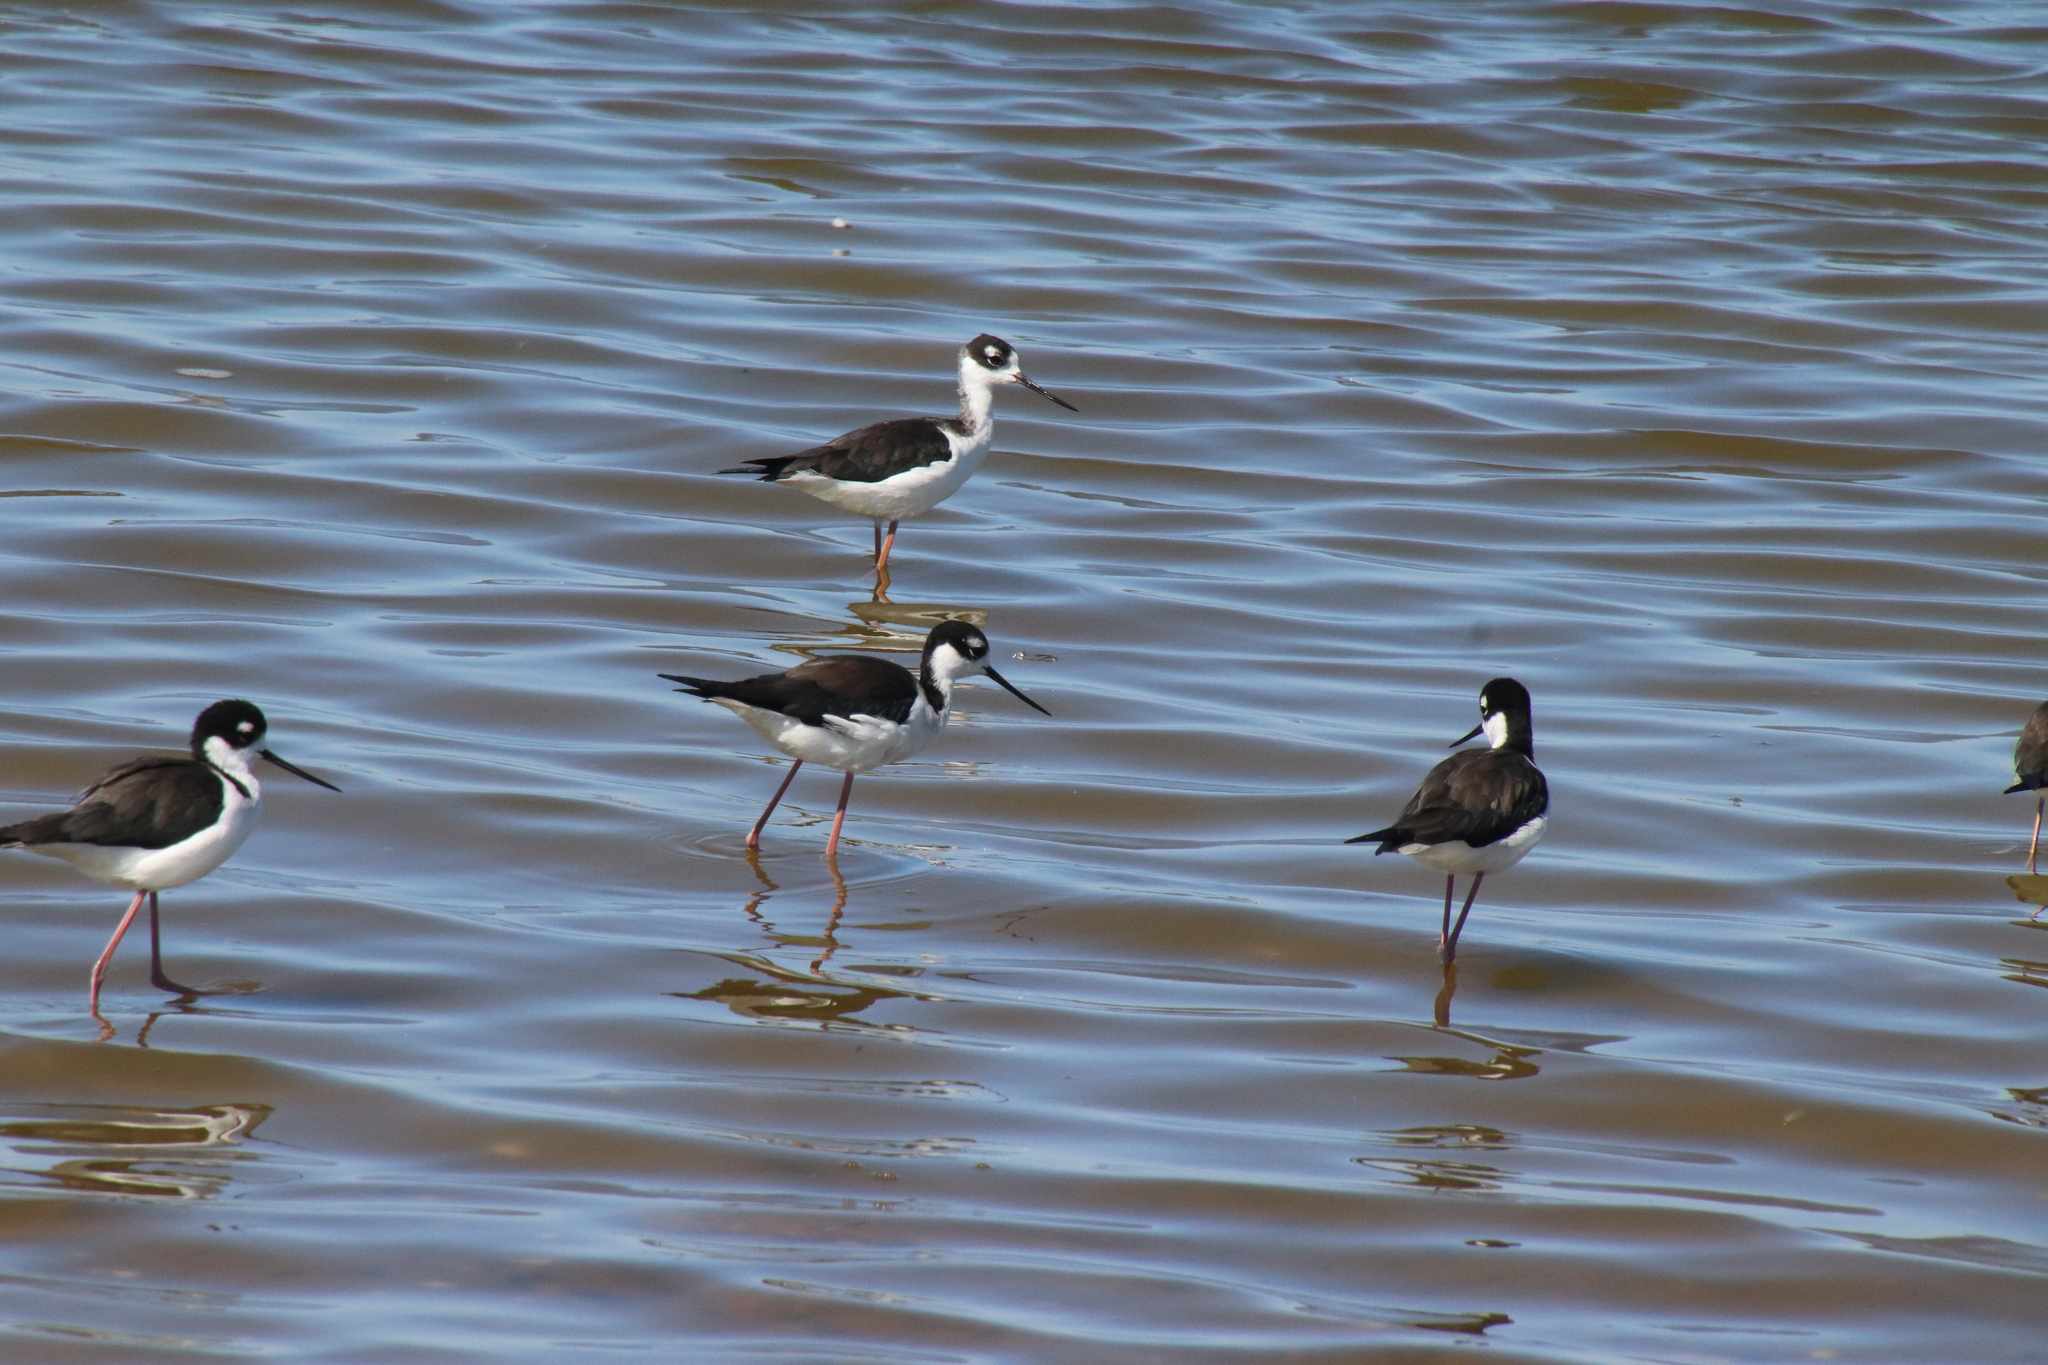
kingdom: Animalia
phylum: Chordata
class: Aves
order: Charadriiformes
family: Recurvirostridae
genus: Himantopus
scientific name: Himantopus mexicanus
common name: Black-necked stilt
